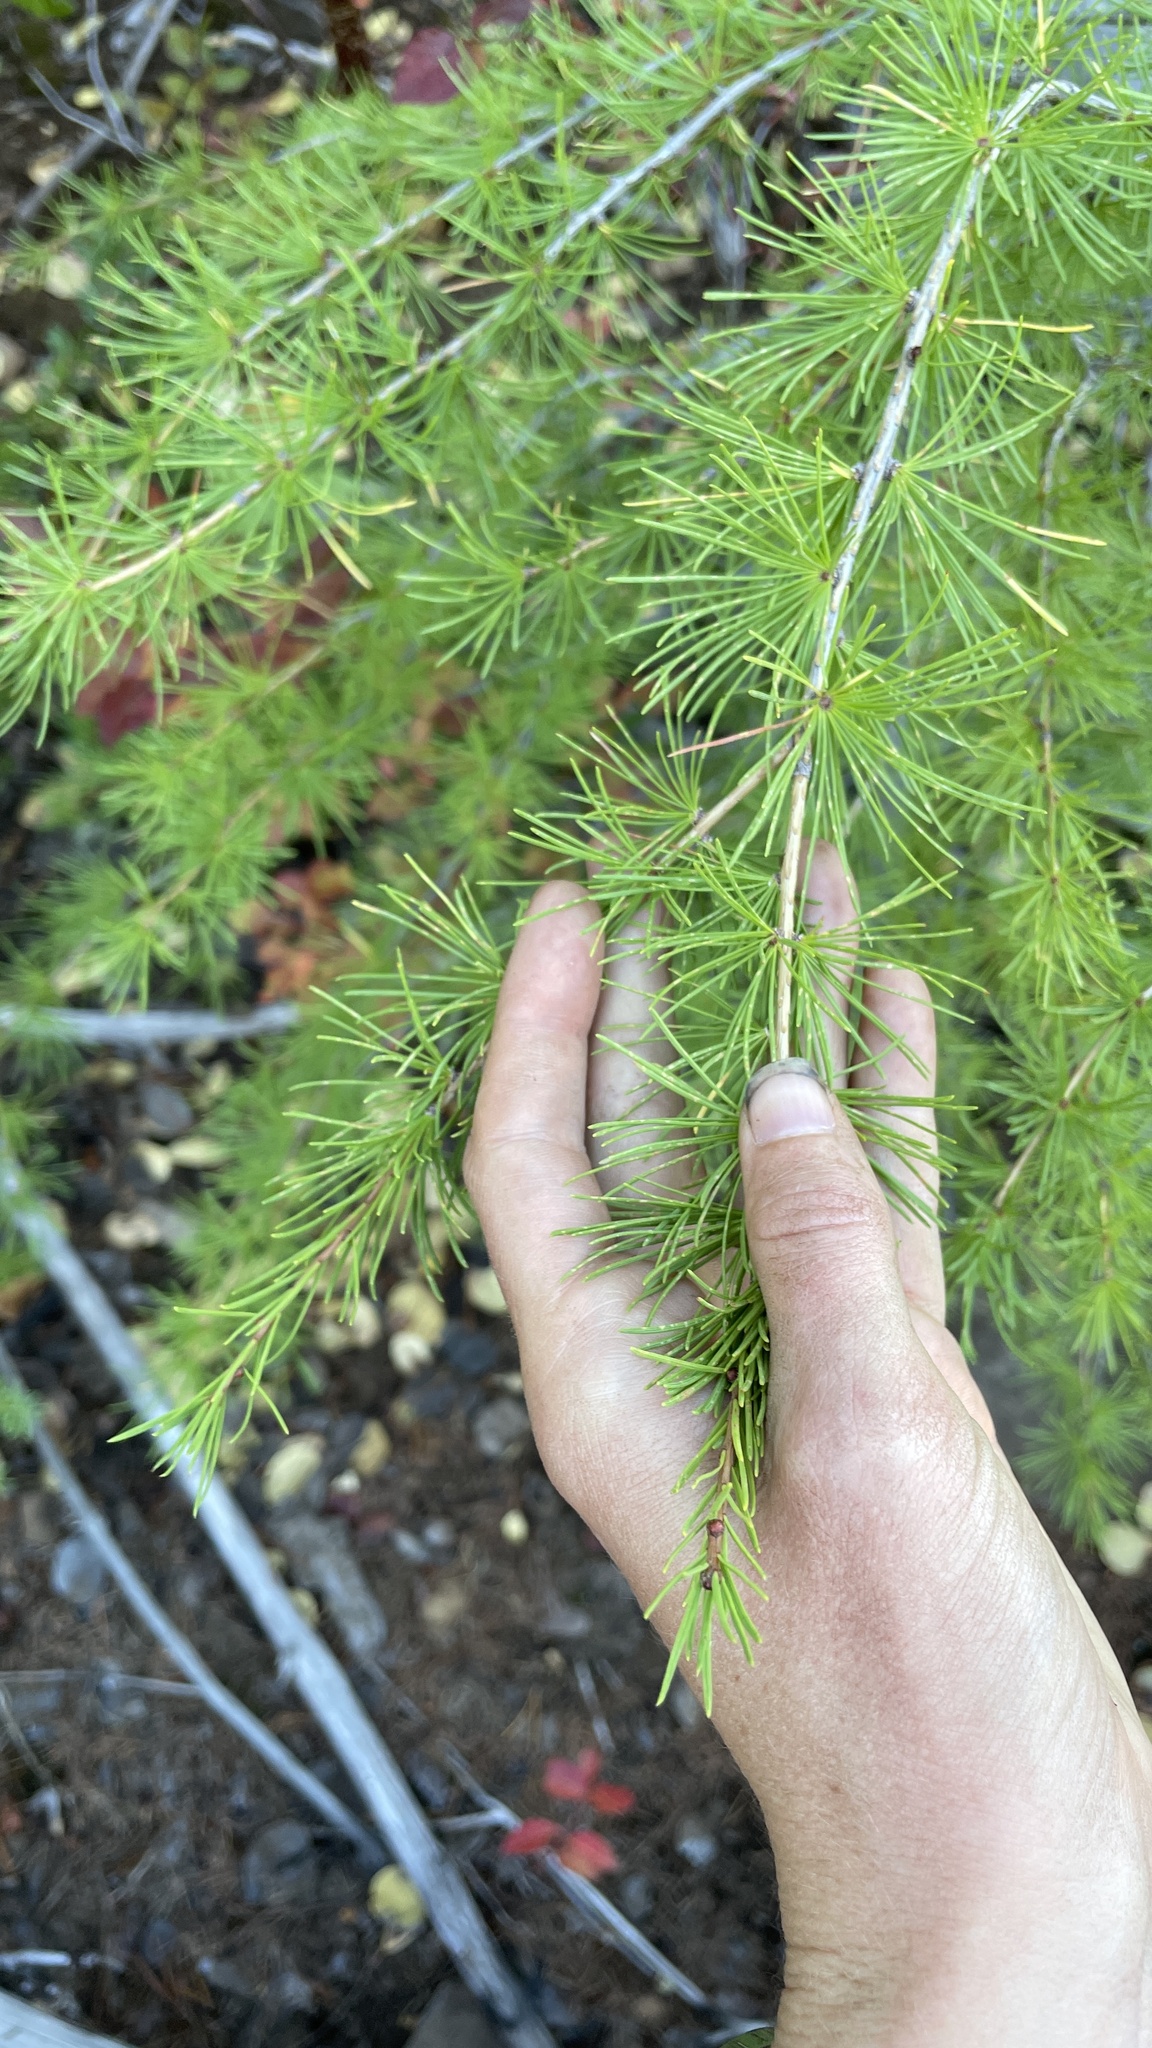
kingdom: Plantae
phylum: Tracheophyta
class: Pinopsida
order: Pinales
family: Pinaceae
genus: Larix
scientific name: Larix occidentalis
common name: Western larch
